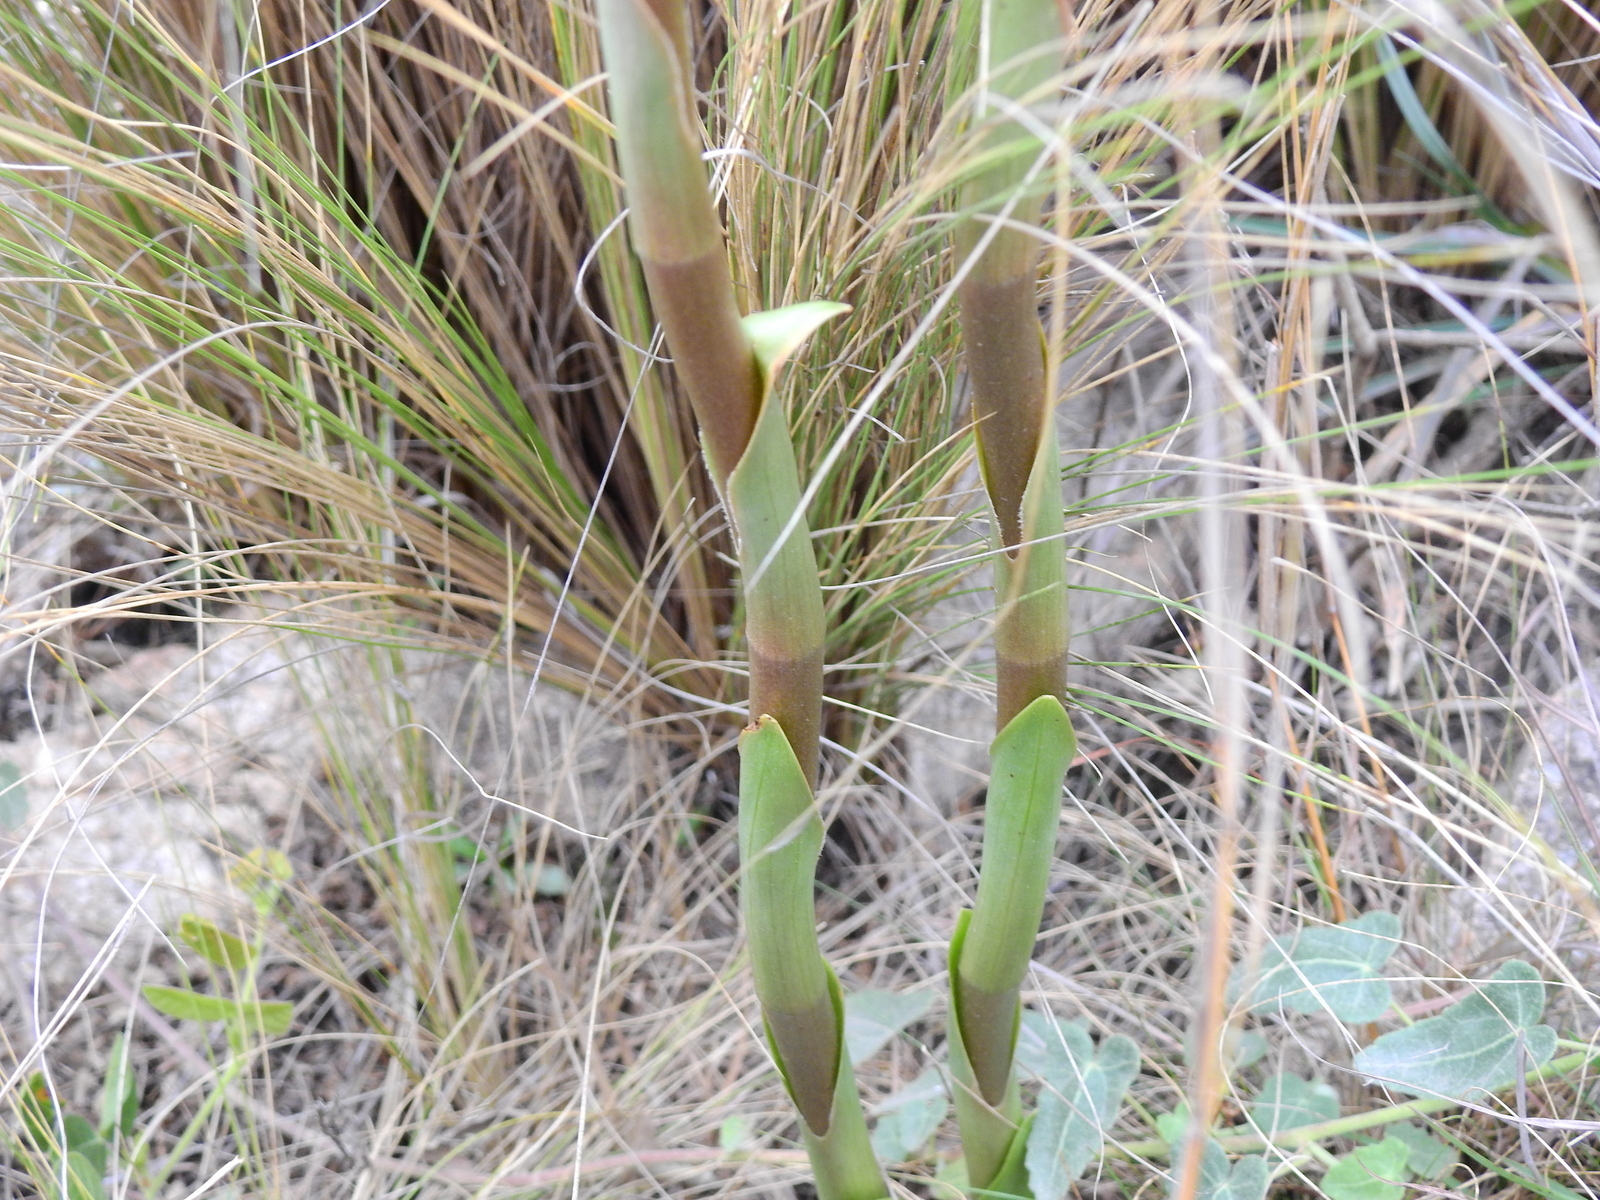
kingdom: Plantae
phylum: Tracheophyta
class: Liliopsida
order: Asparagales
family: Orchidaceae
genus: Sacoila
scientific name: Sacoila lanceolata
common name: Leafless beaked ladiestresses
